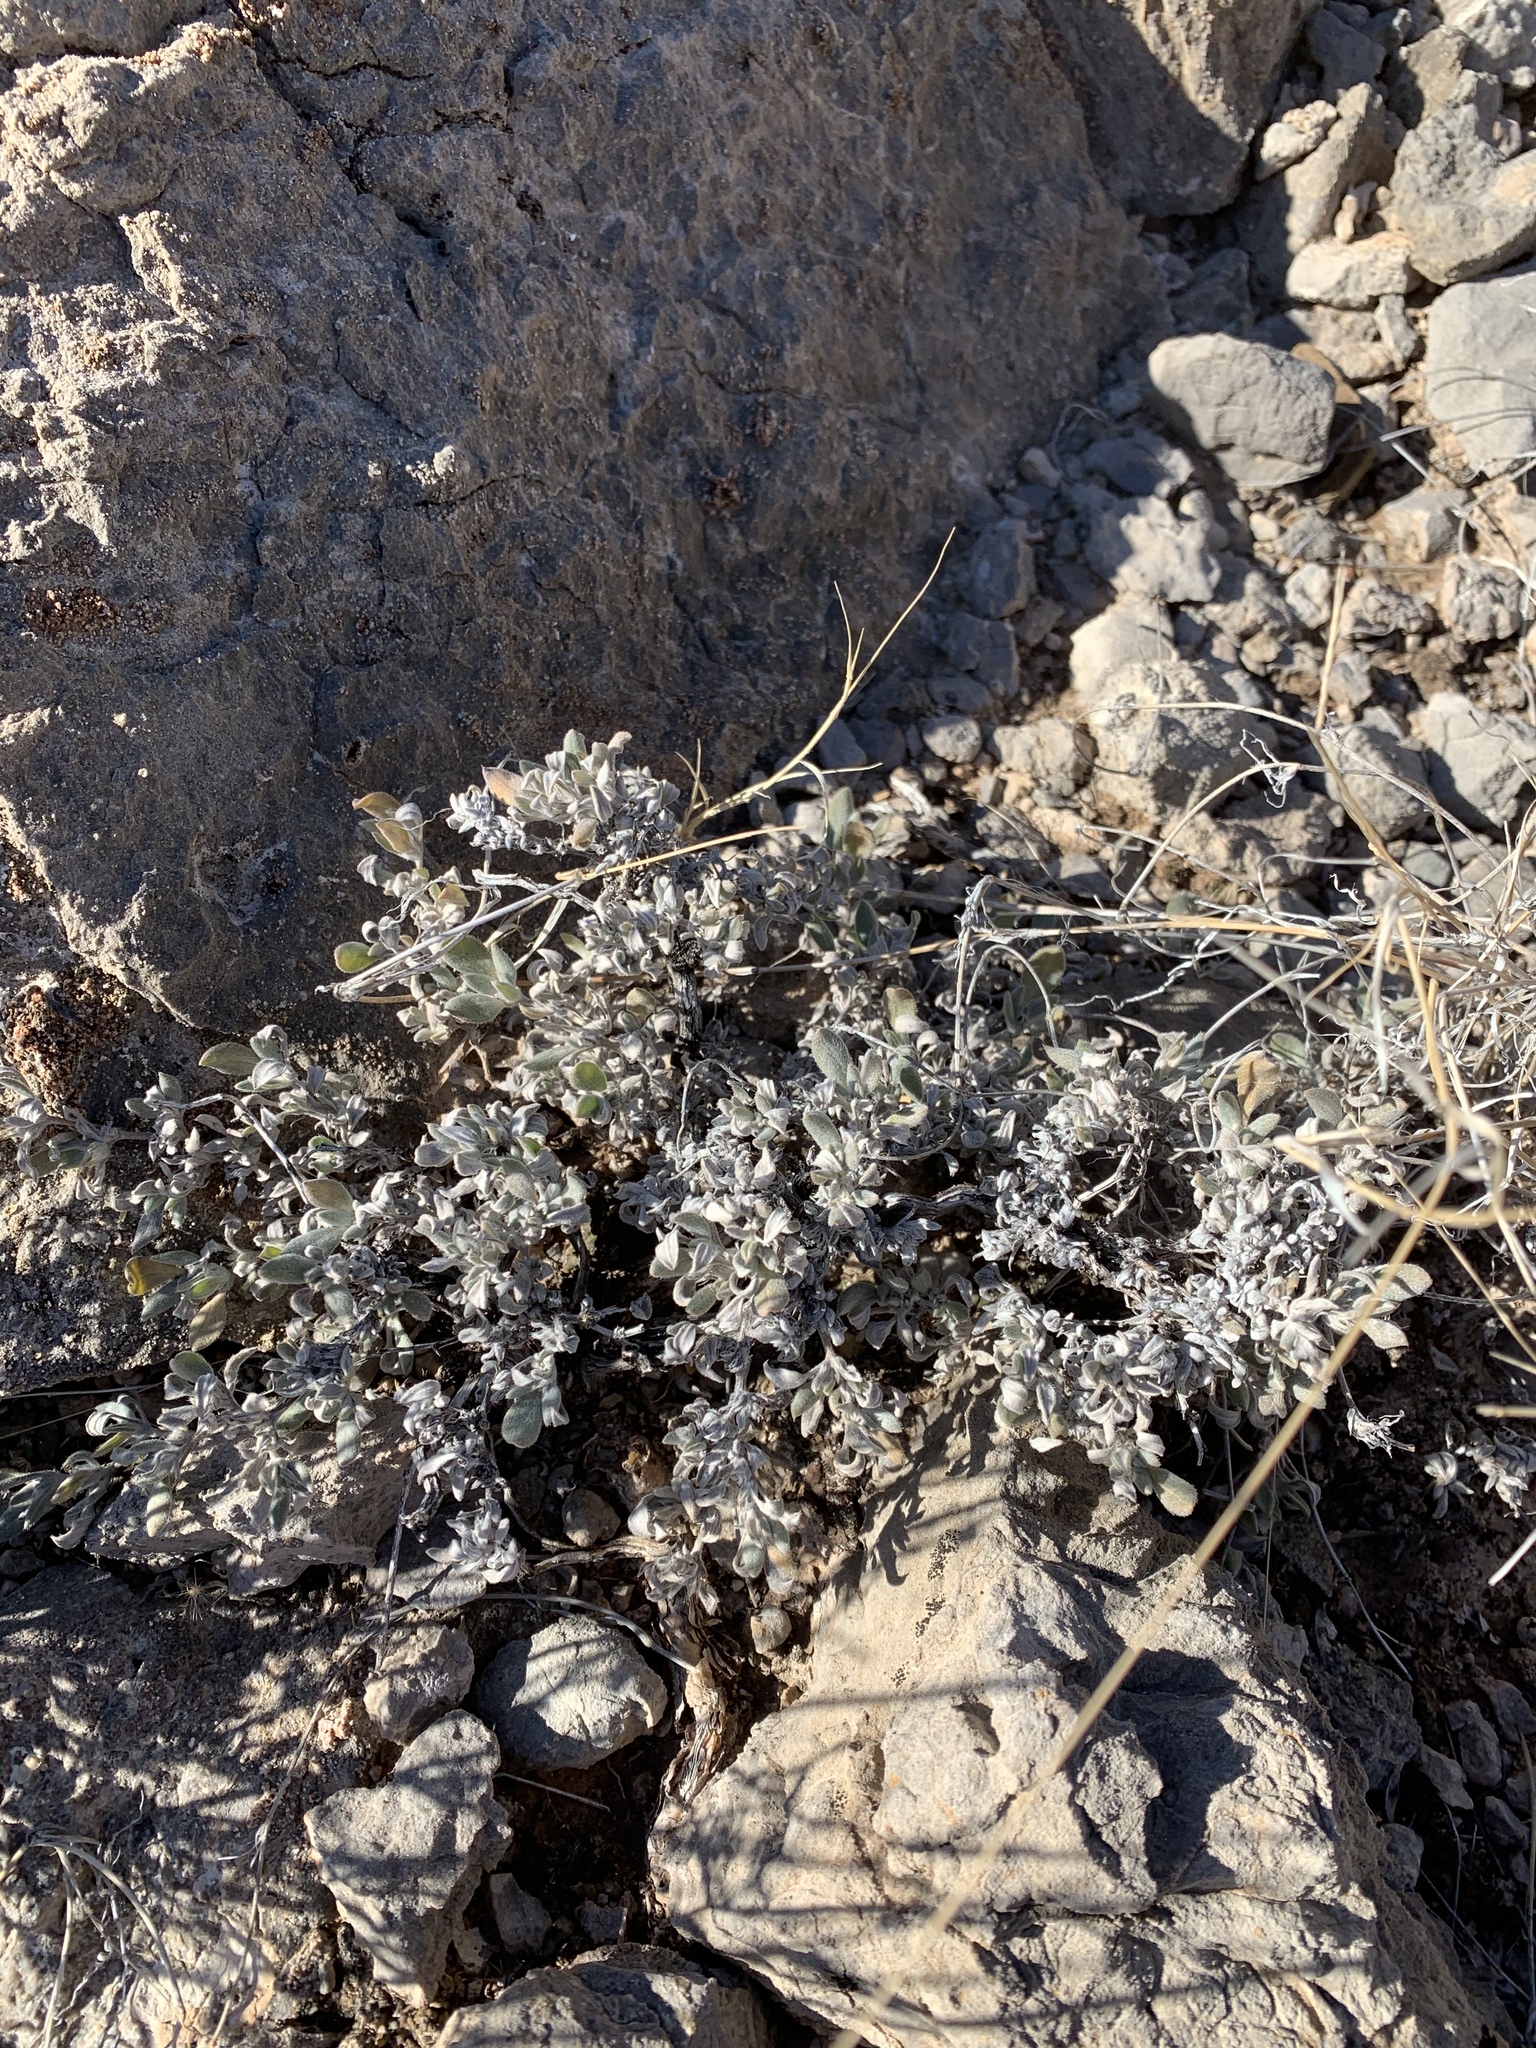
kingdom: Plantae
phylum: Tracheophyta
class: Magnoliopsida
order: Boraginales
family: Ehretiaceae
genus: Tiquilia
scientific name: Tiquilia canescens
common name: Hairy tiquilia
